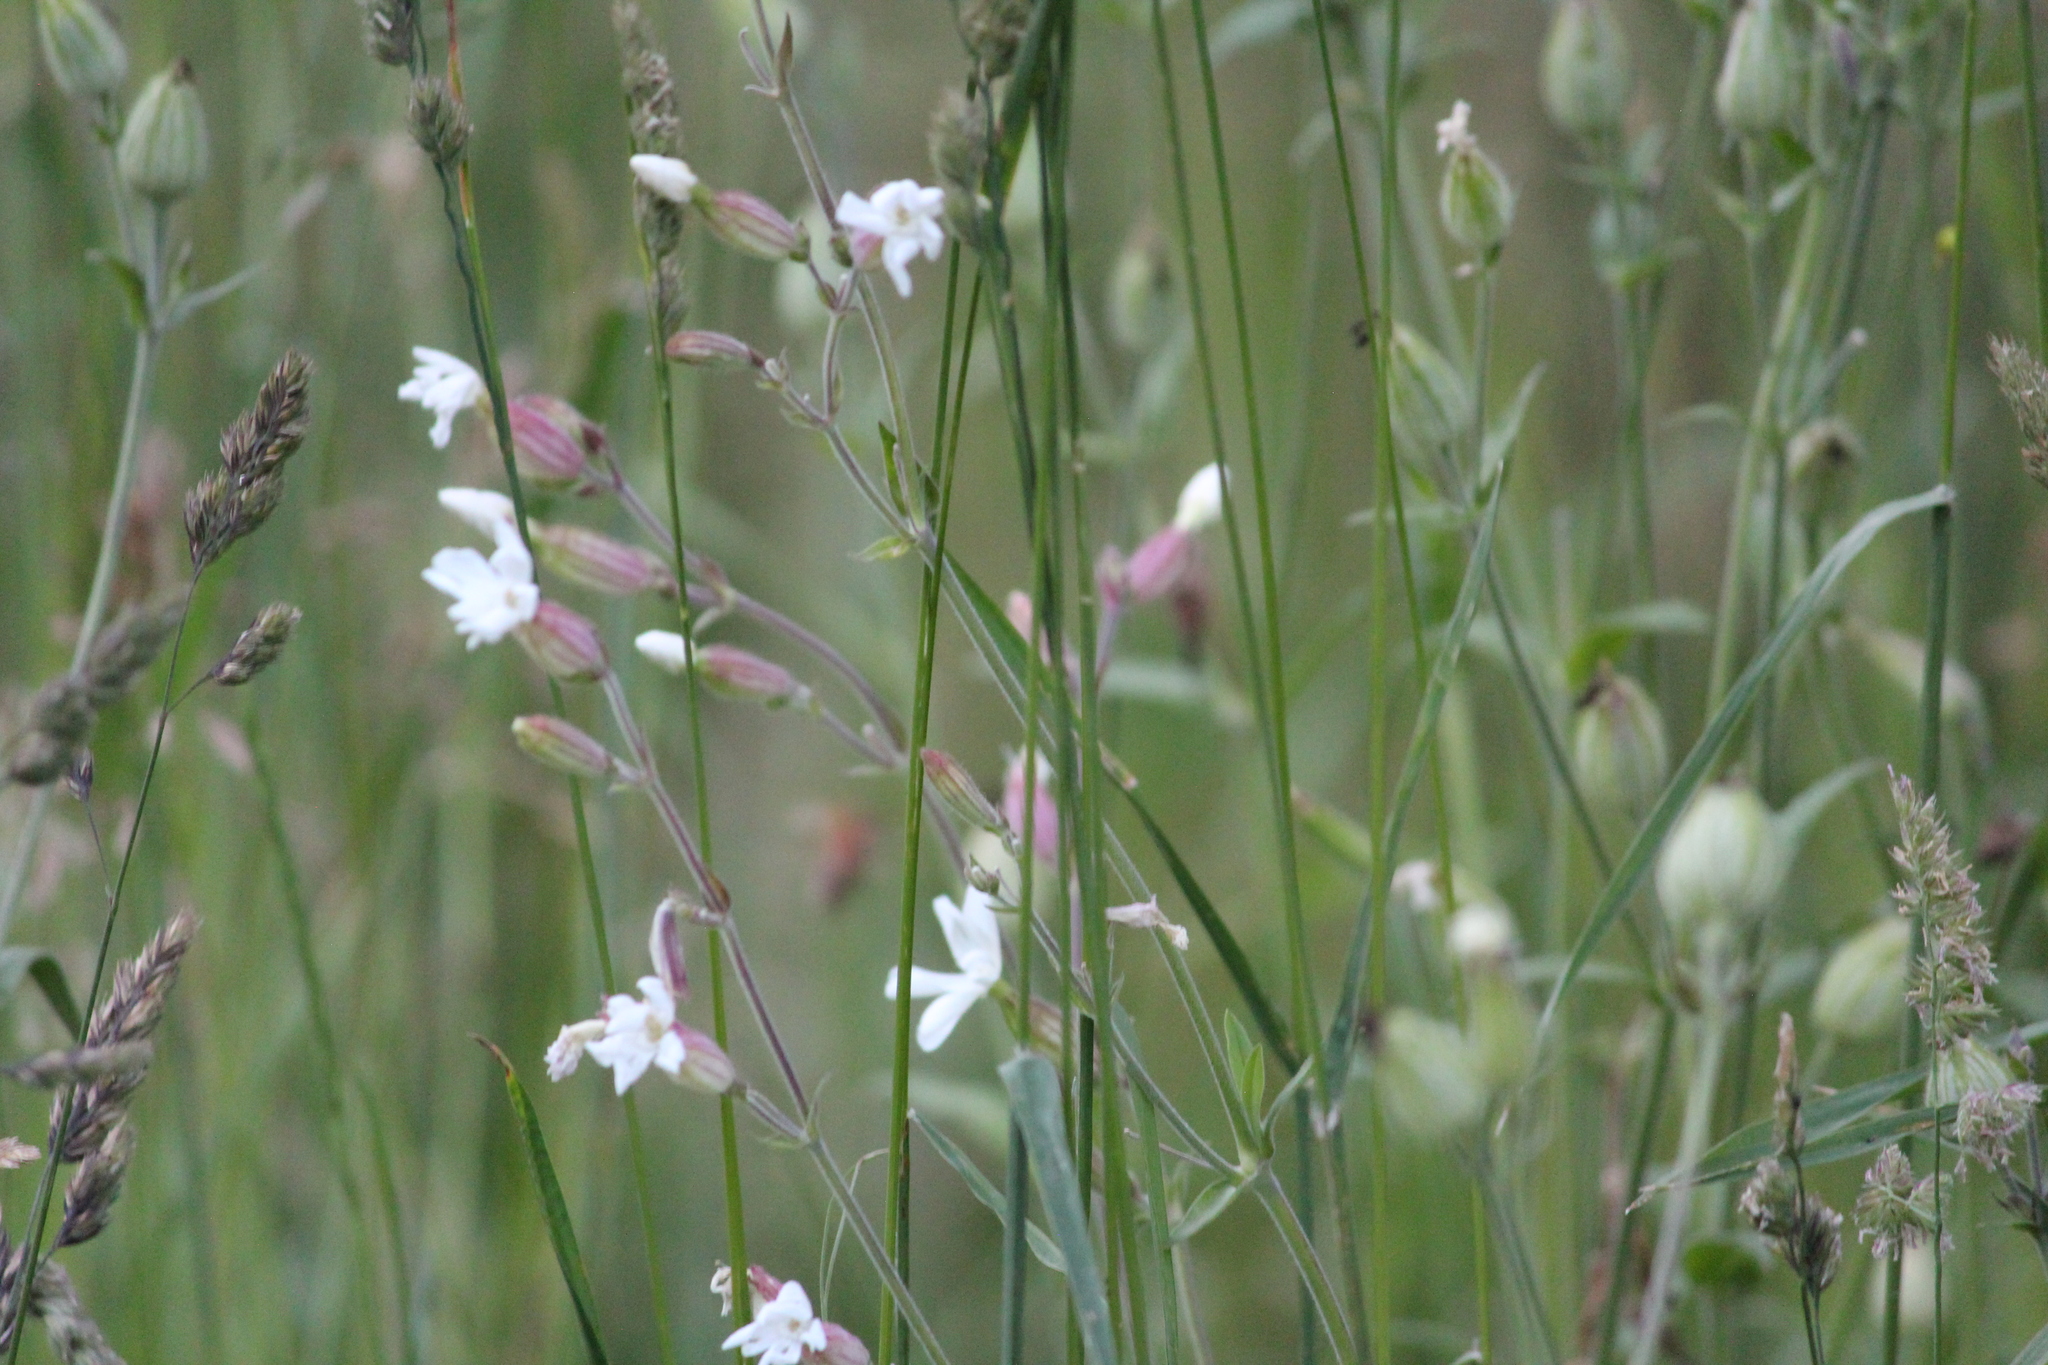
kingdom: Plantae
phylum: Tracheophyta
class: Magnoliopsida
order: Caryophyllales
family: Caryophyllaceae
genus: Silene
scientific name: Silene latifolia
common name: White campion
